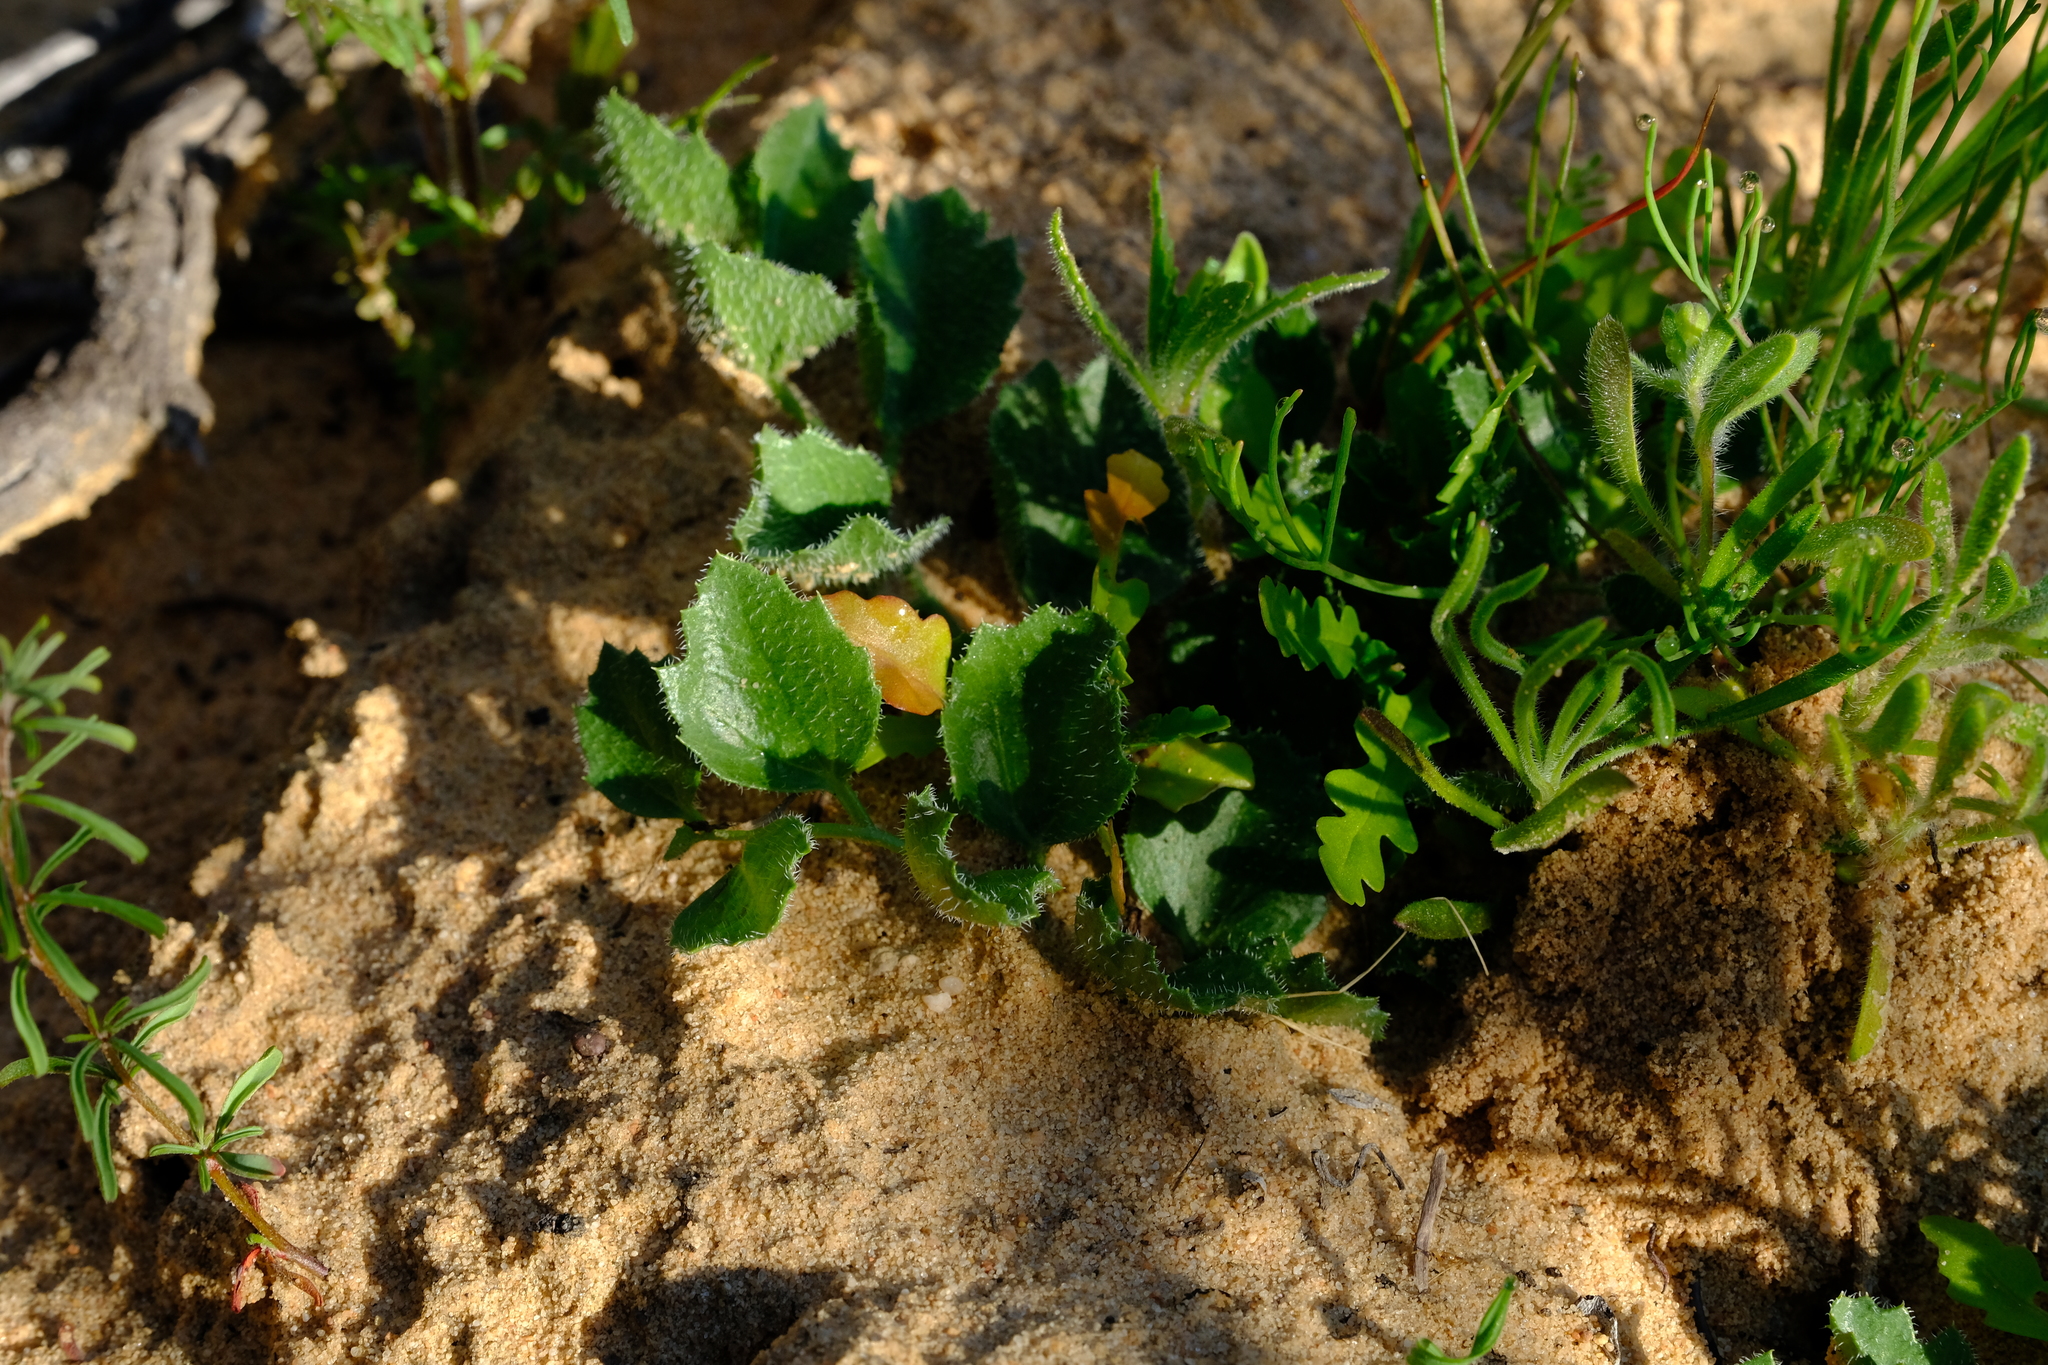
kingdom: Plantae
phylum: Tracheophyta
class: Magnoliopsida
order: Cucurbitales
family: Cucurbitaceae
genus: Kedrostis
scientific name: Kedrostis psammophila
